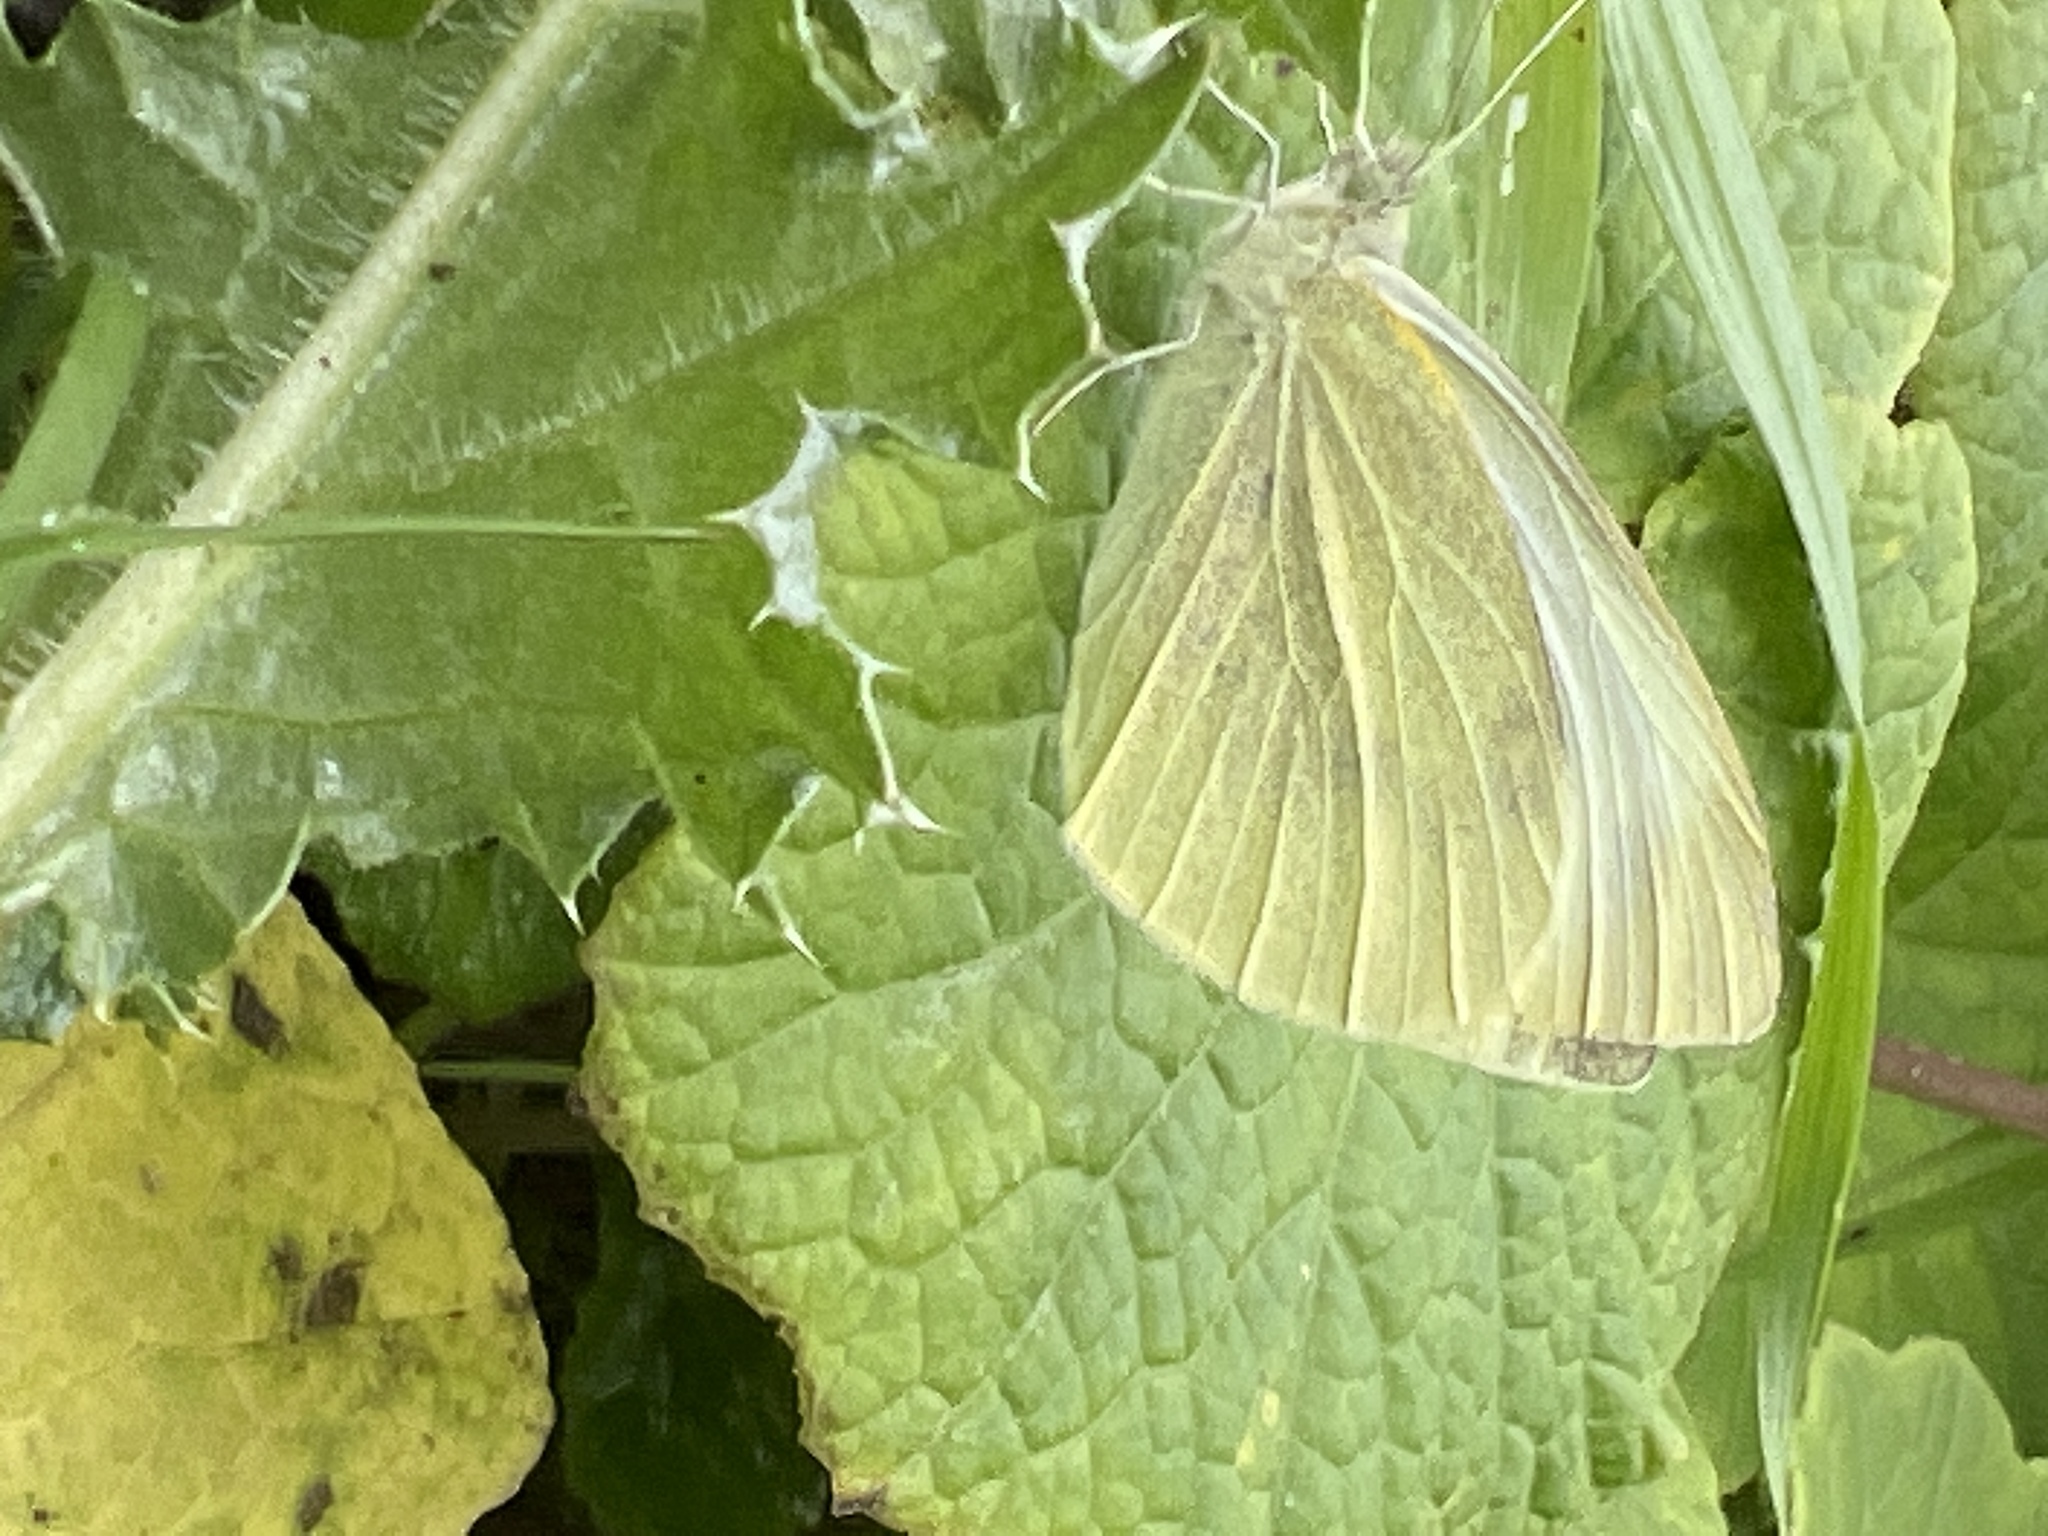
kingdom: Animalia
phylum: Arthropoda
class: Insecta
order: Lepidoptera
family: Pieridae
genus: Pieris
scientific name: Pieris rapae
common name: Small white
